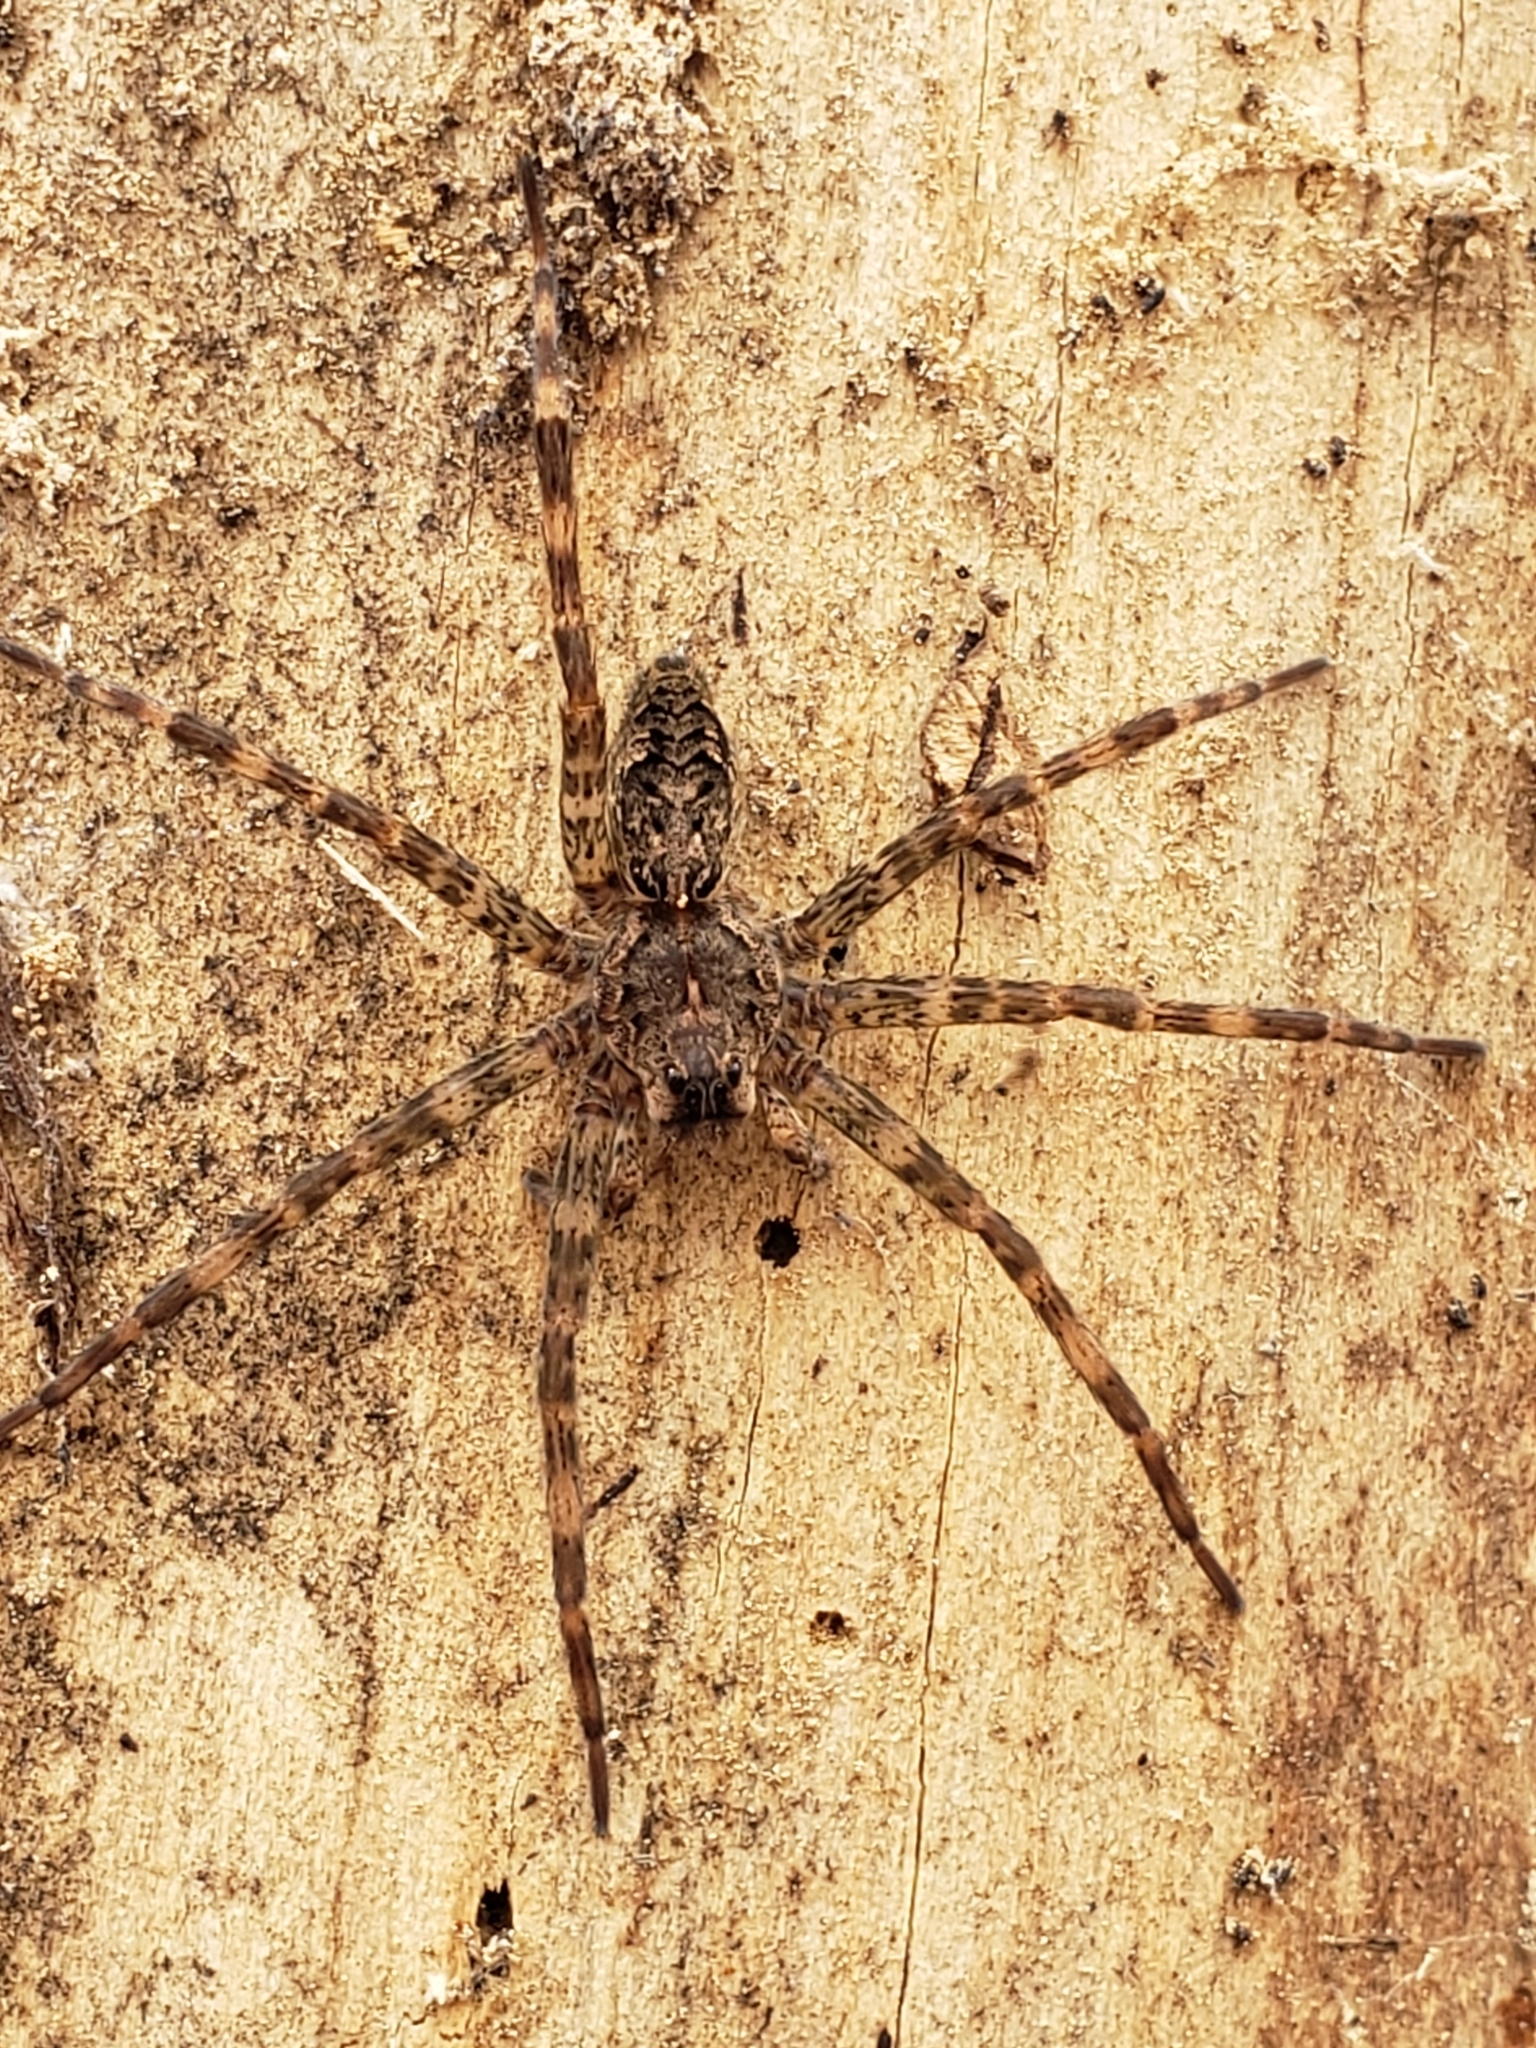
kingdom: Animalia
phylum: Arthropoda
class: Arachnida
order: Araneae
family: Pisauridae
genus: Dolomedes
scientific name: Dolomedes tenebrosus
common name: Dark fishing spider
